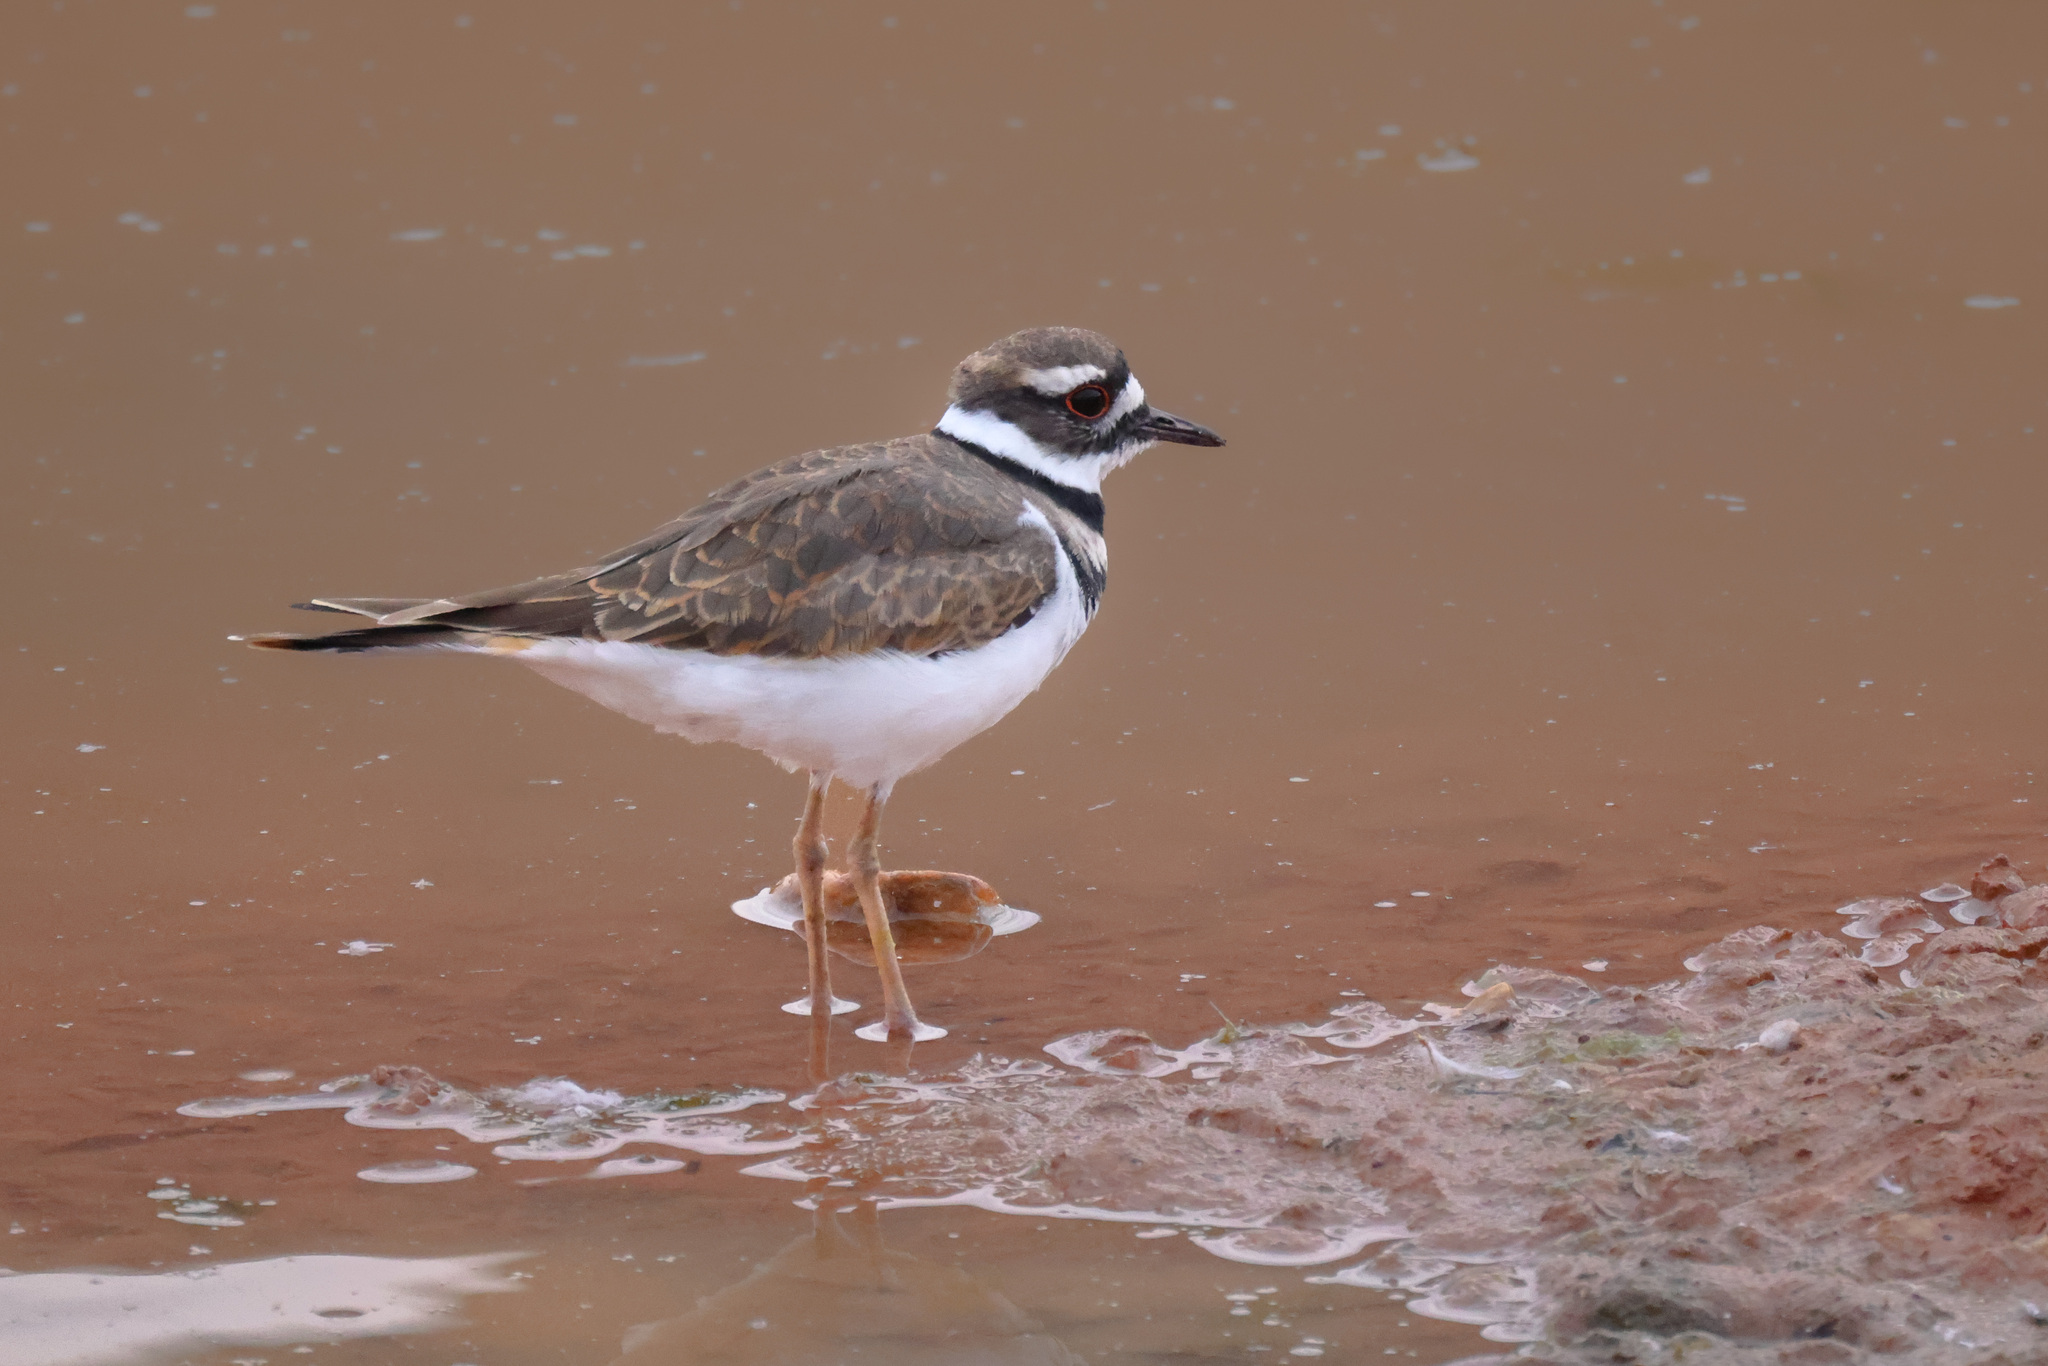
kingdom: Animalia
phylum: Chordata
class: Aves
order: Charadriiformes
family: Charadriidae
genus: Charadrius
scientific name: Charadrius vociferus
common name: Killdeer
